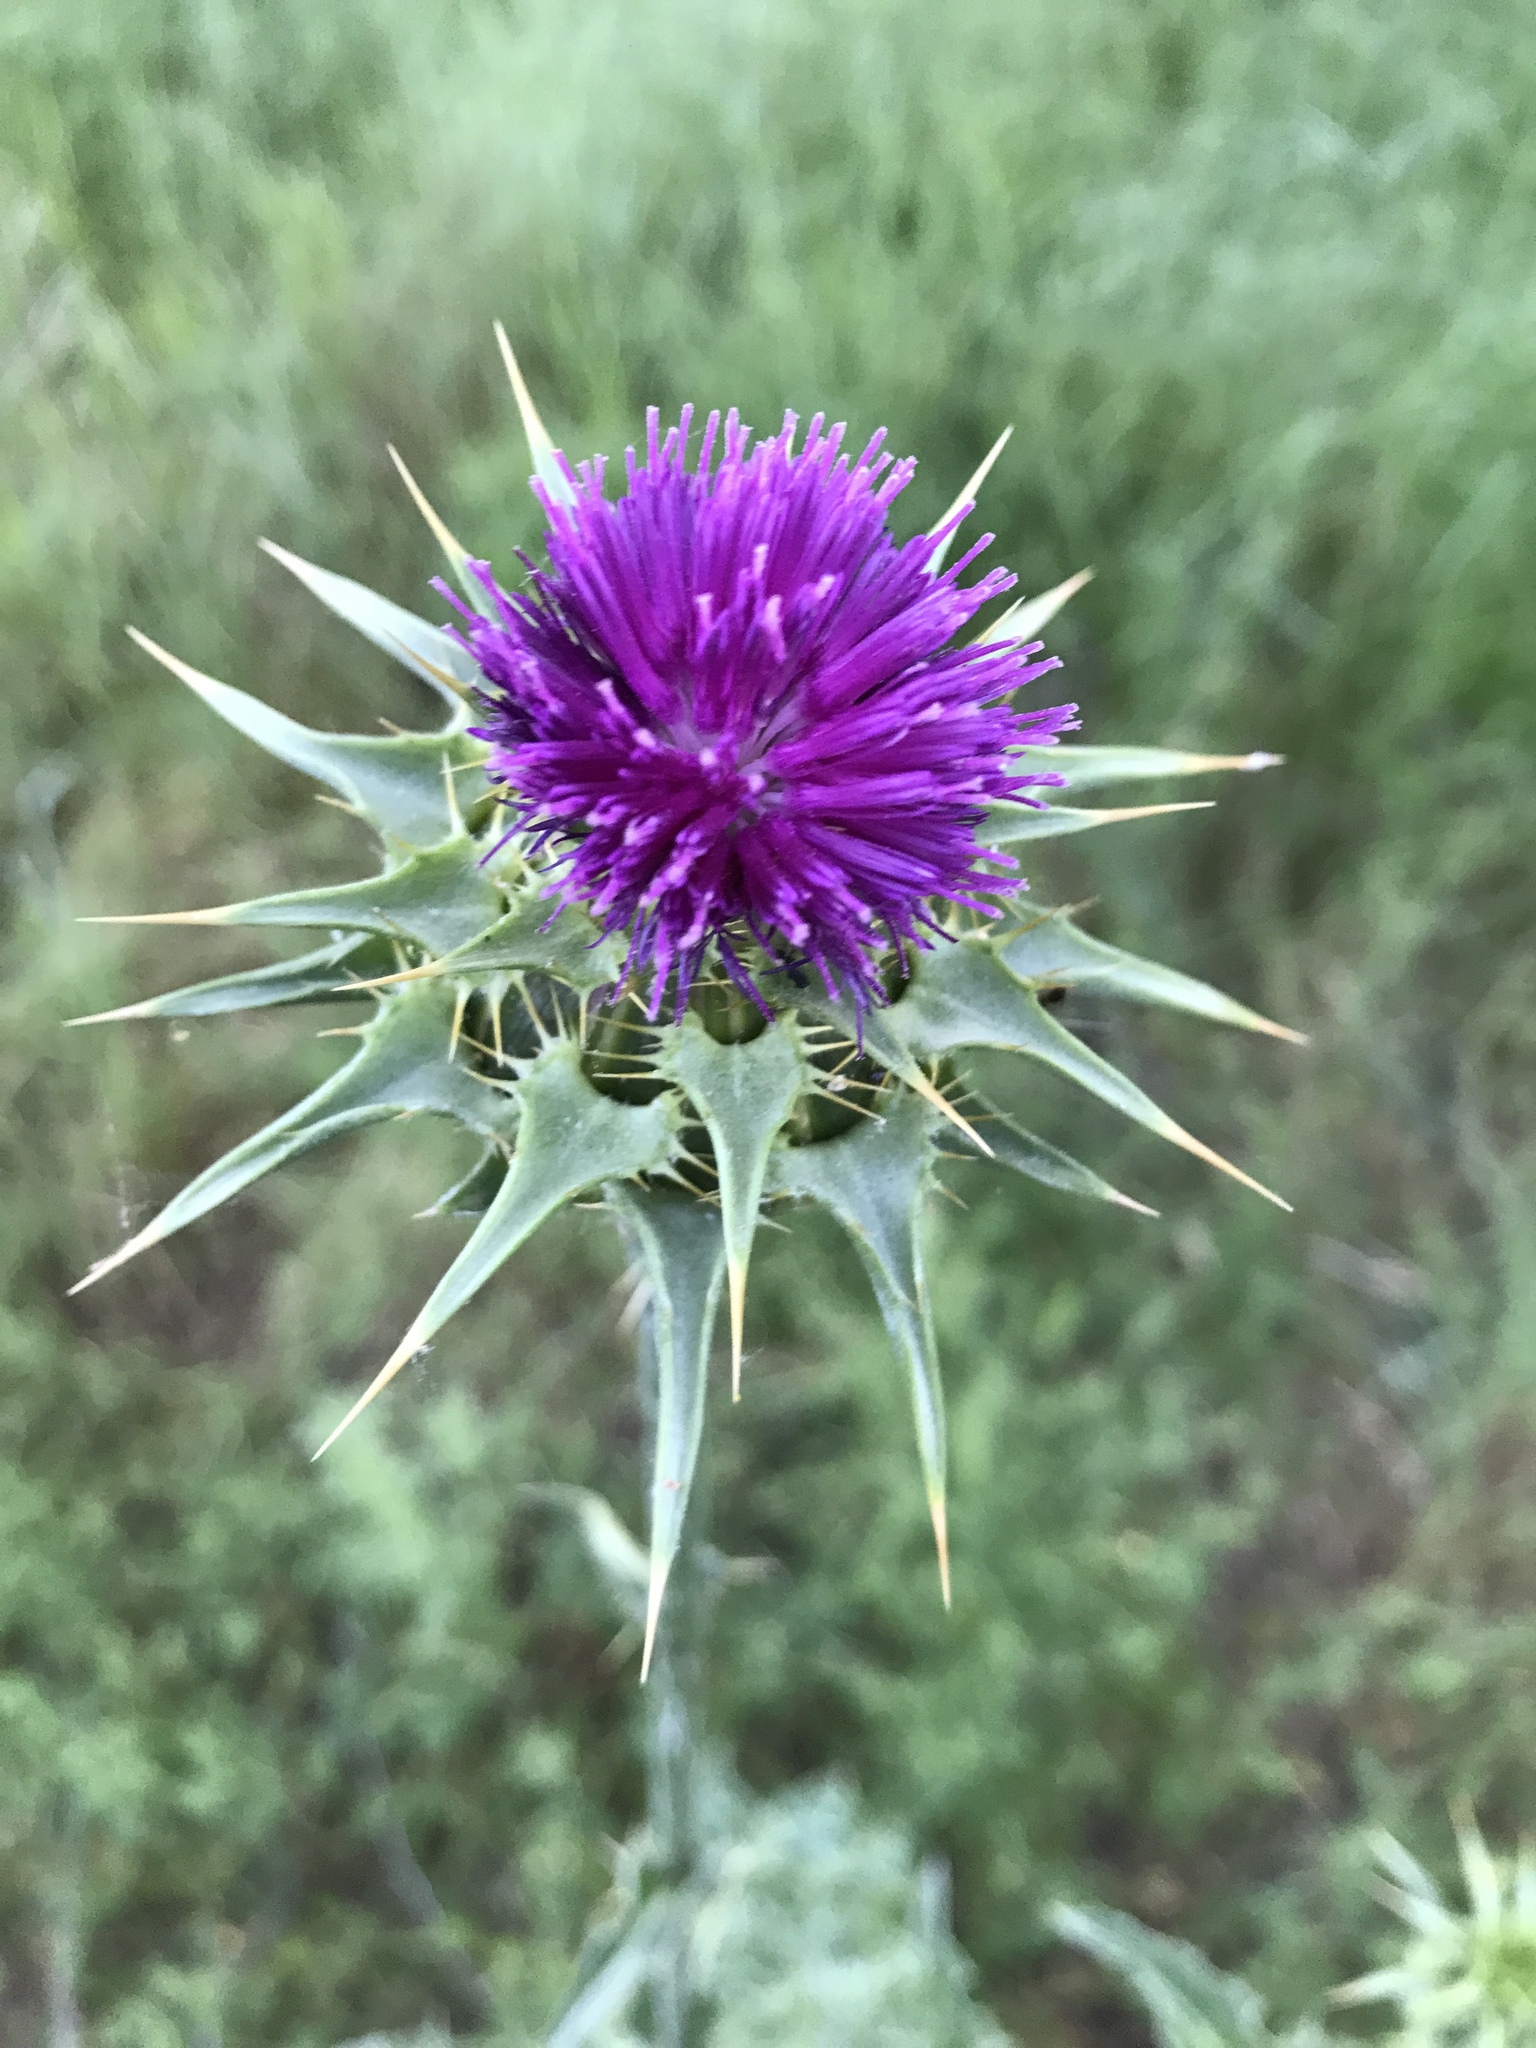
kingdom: Plantae
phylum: Tracheophyta
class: Magnoliopsida
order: Asterales
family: Asteraceae
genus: Silybum
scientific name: Silybum marianum
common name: Milk thistle
